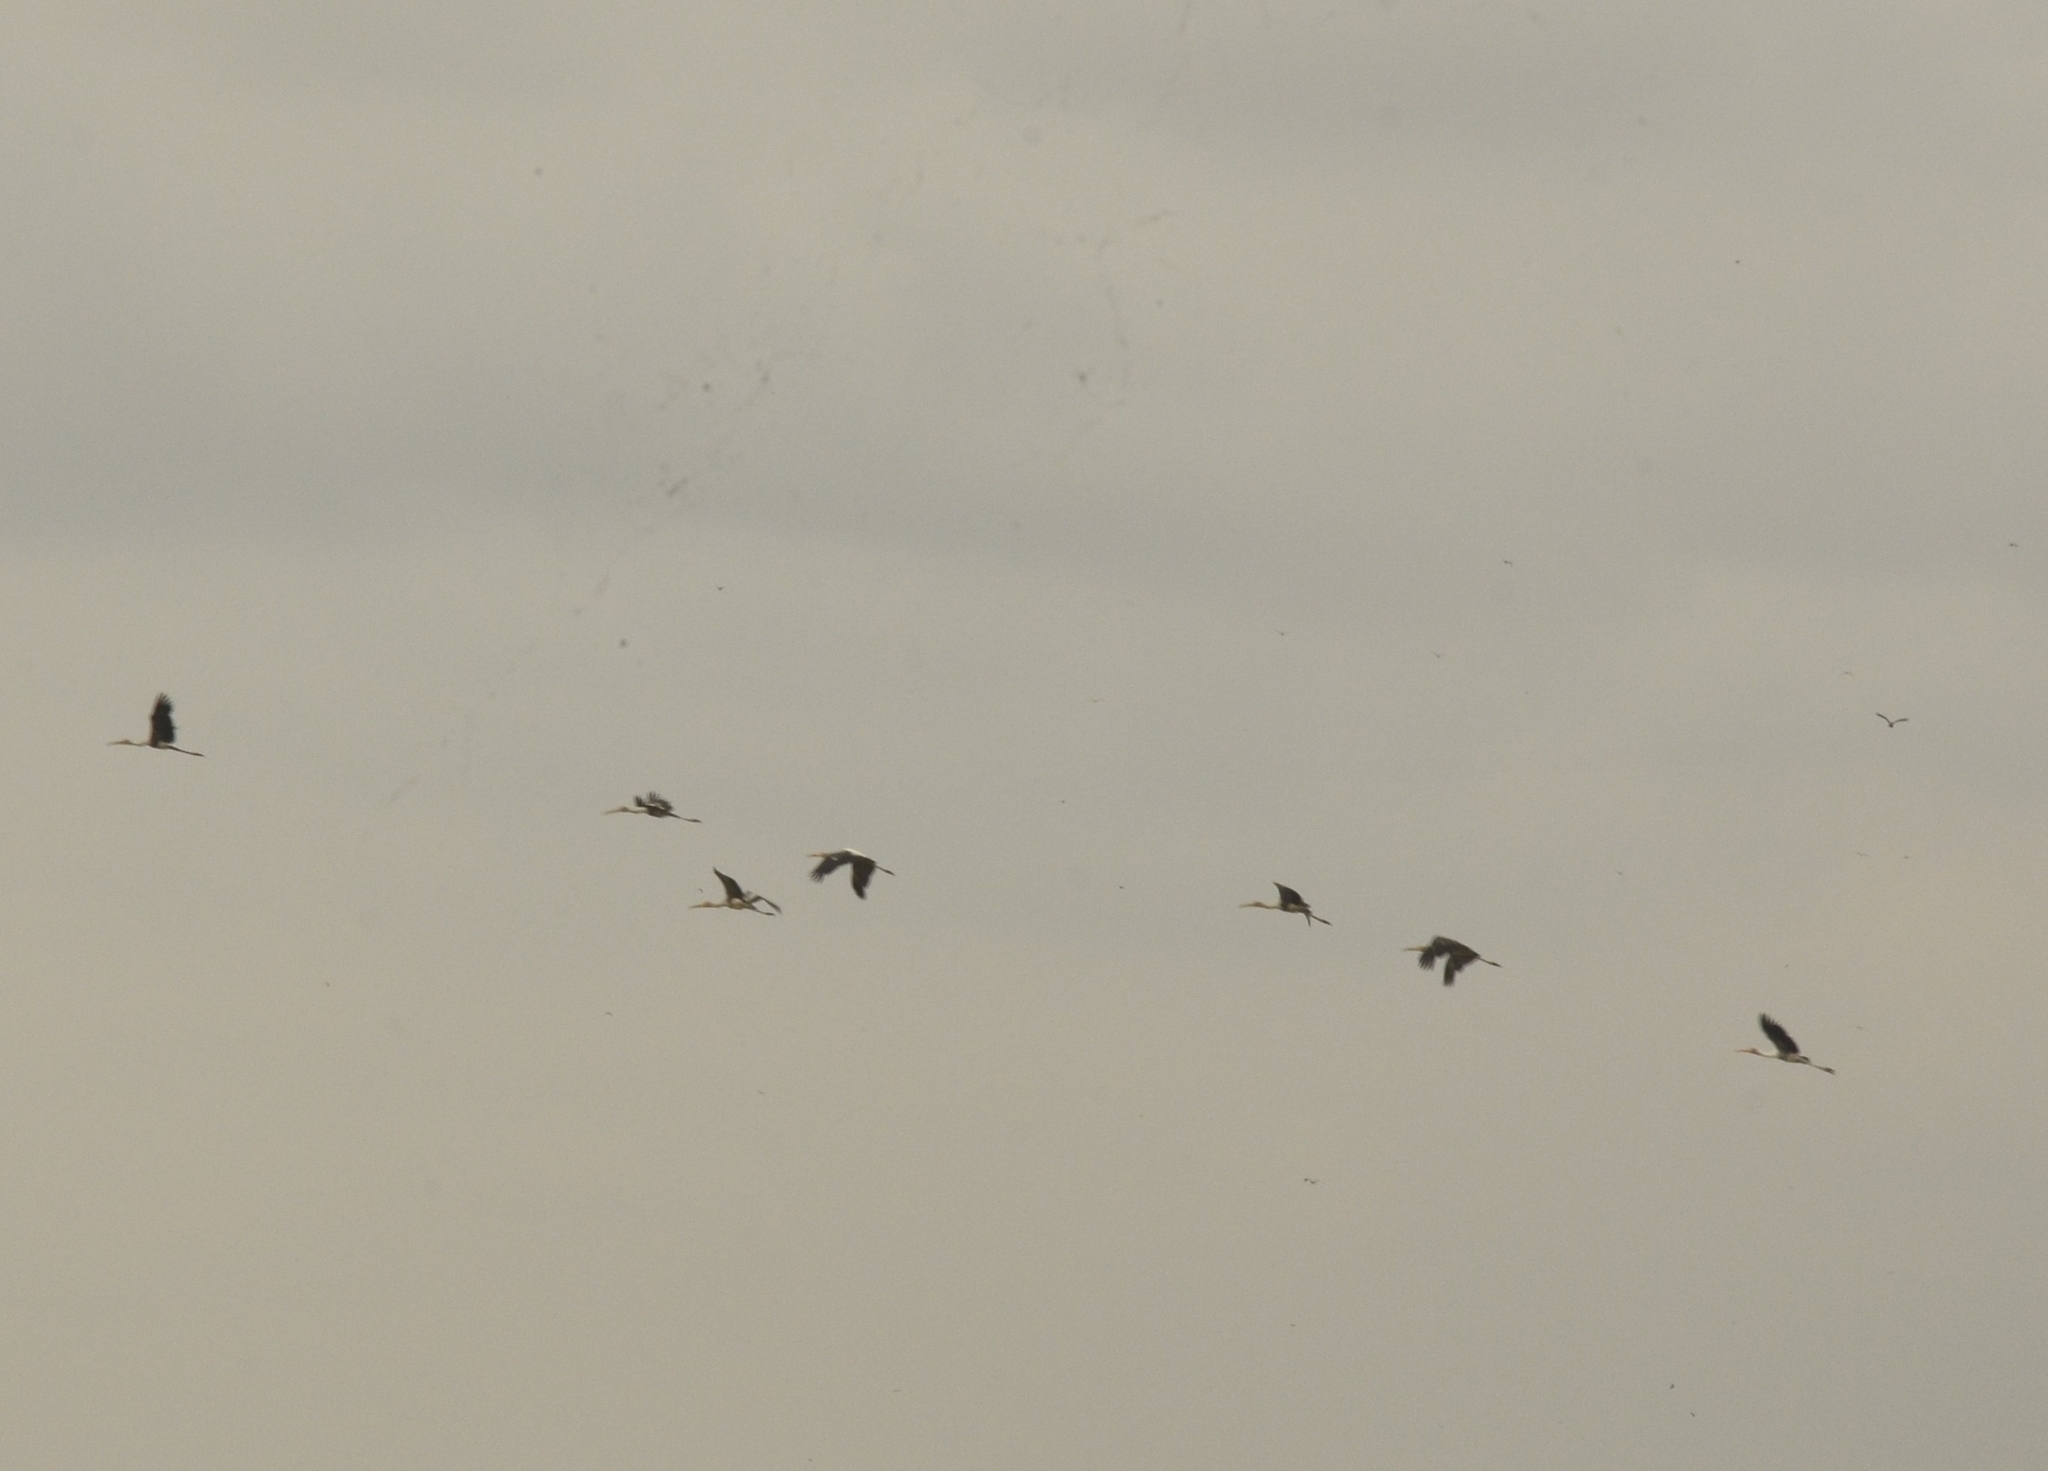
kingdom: Animalia
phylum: Chordata
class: Aves
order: Ciconiiformes
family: Ciconiidae
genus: Mycteria
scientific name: Mycteria leucocephala
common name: Painted stork
